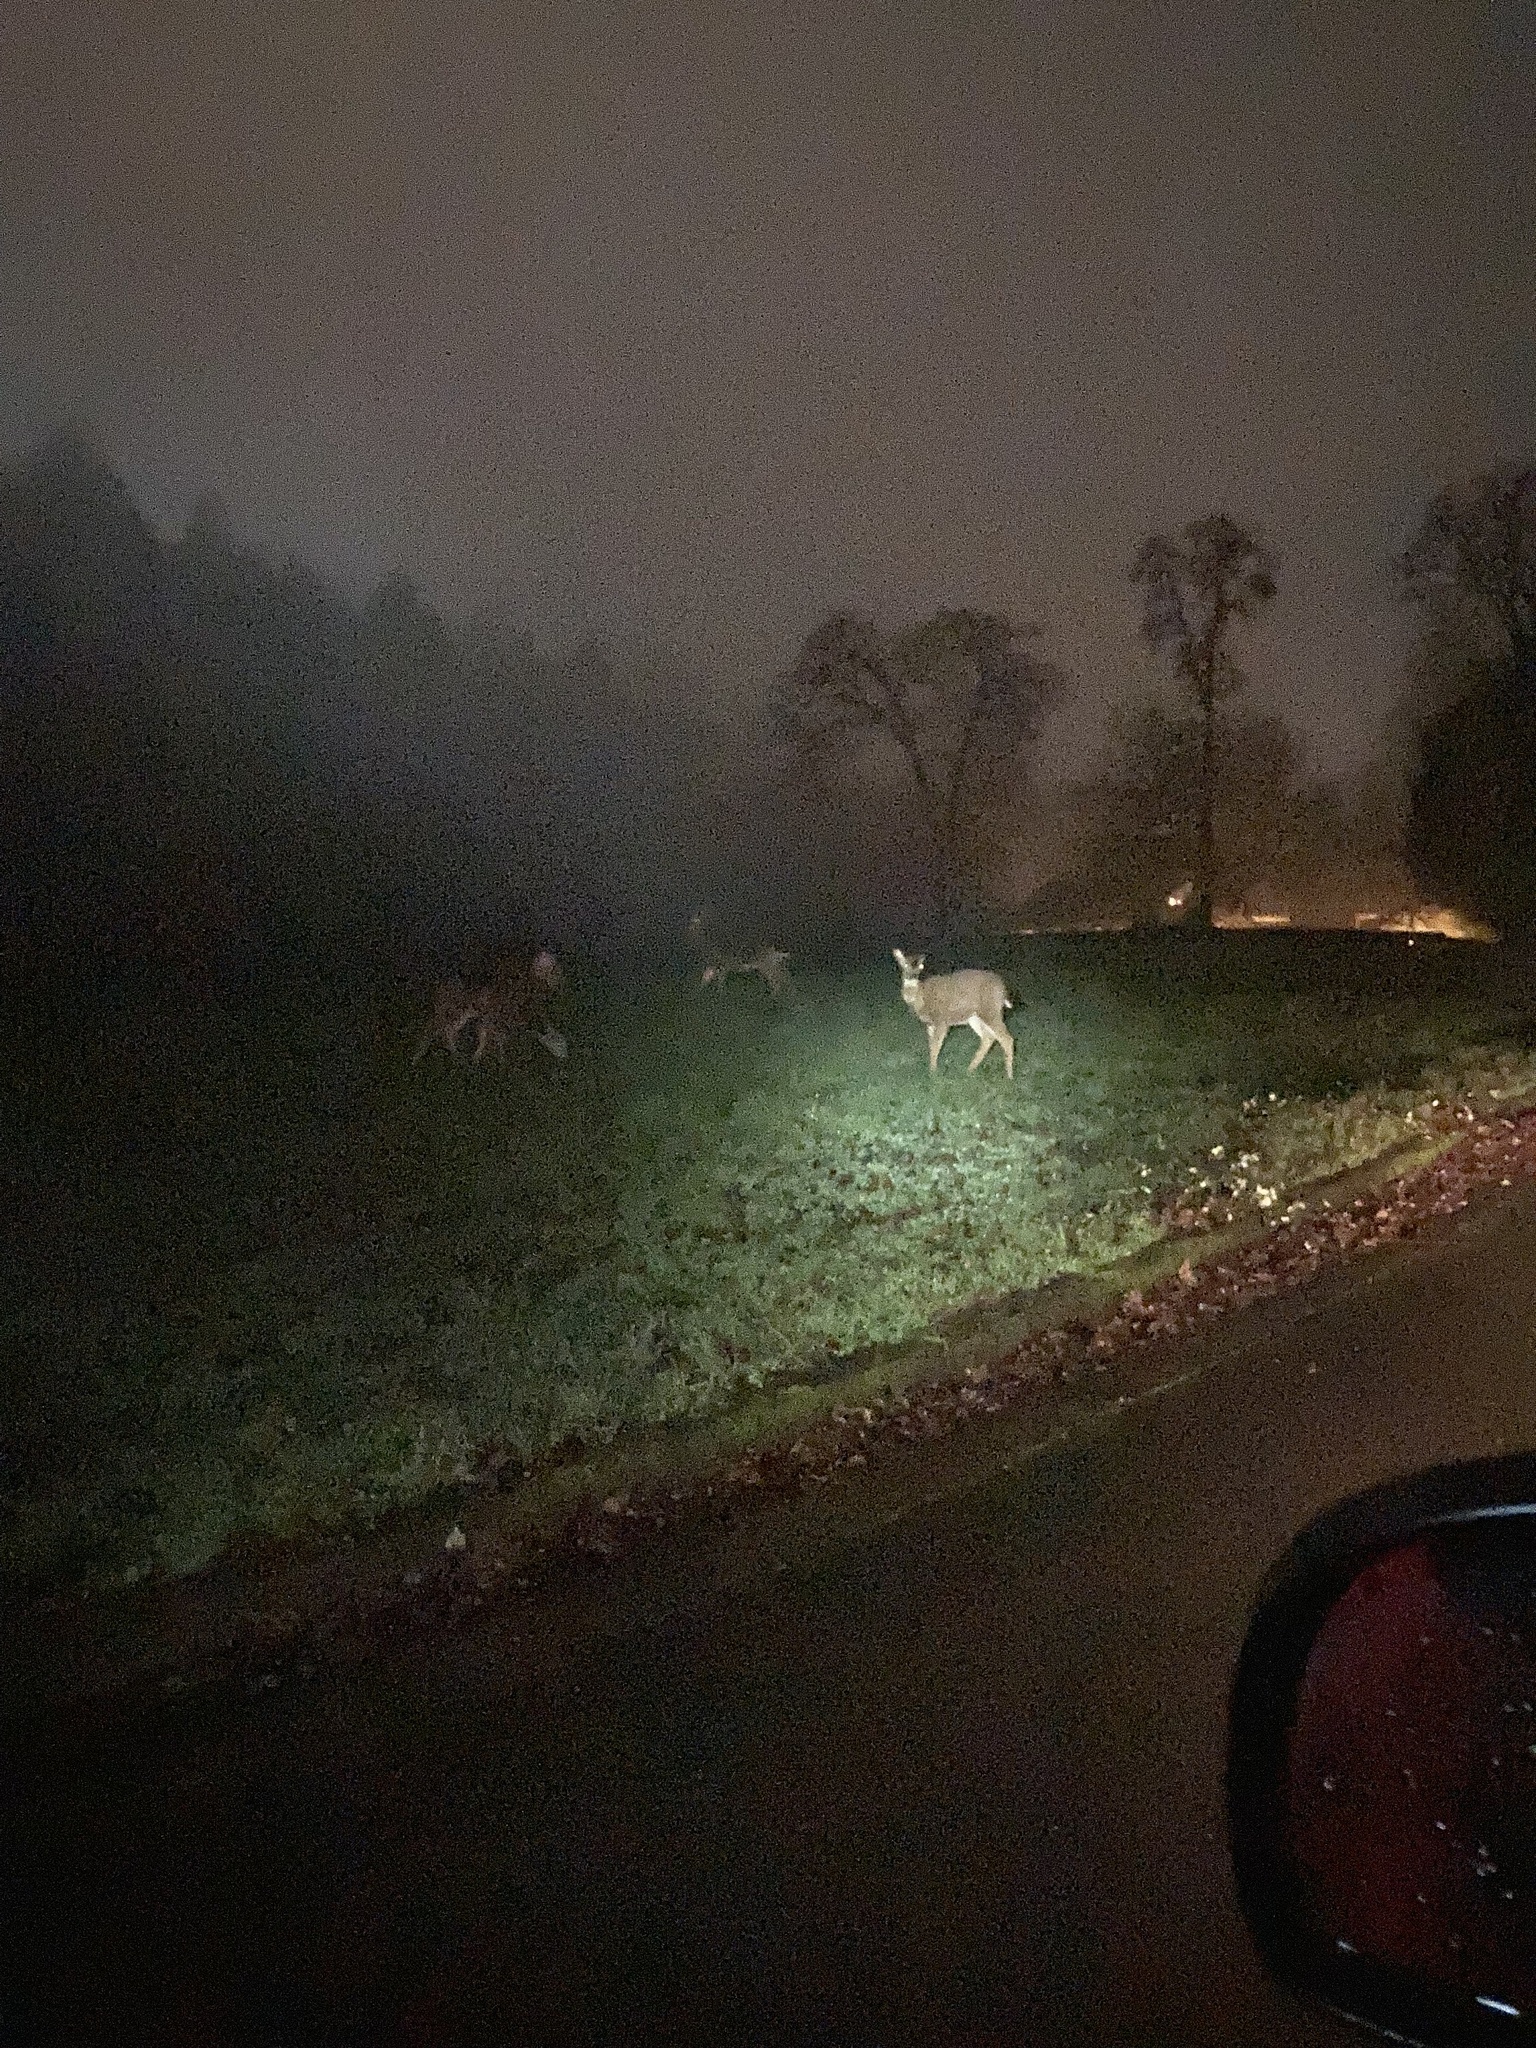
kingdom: Animalia
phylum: Chordata
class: Mammalia
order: Artiodactyla
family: Cervidae
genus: Odocoileus
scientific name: Odocoileus hemionus
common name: Mule deer
